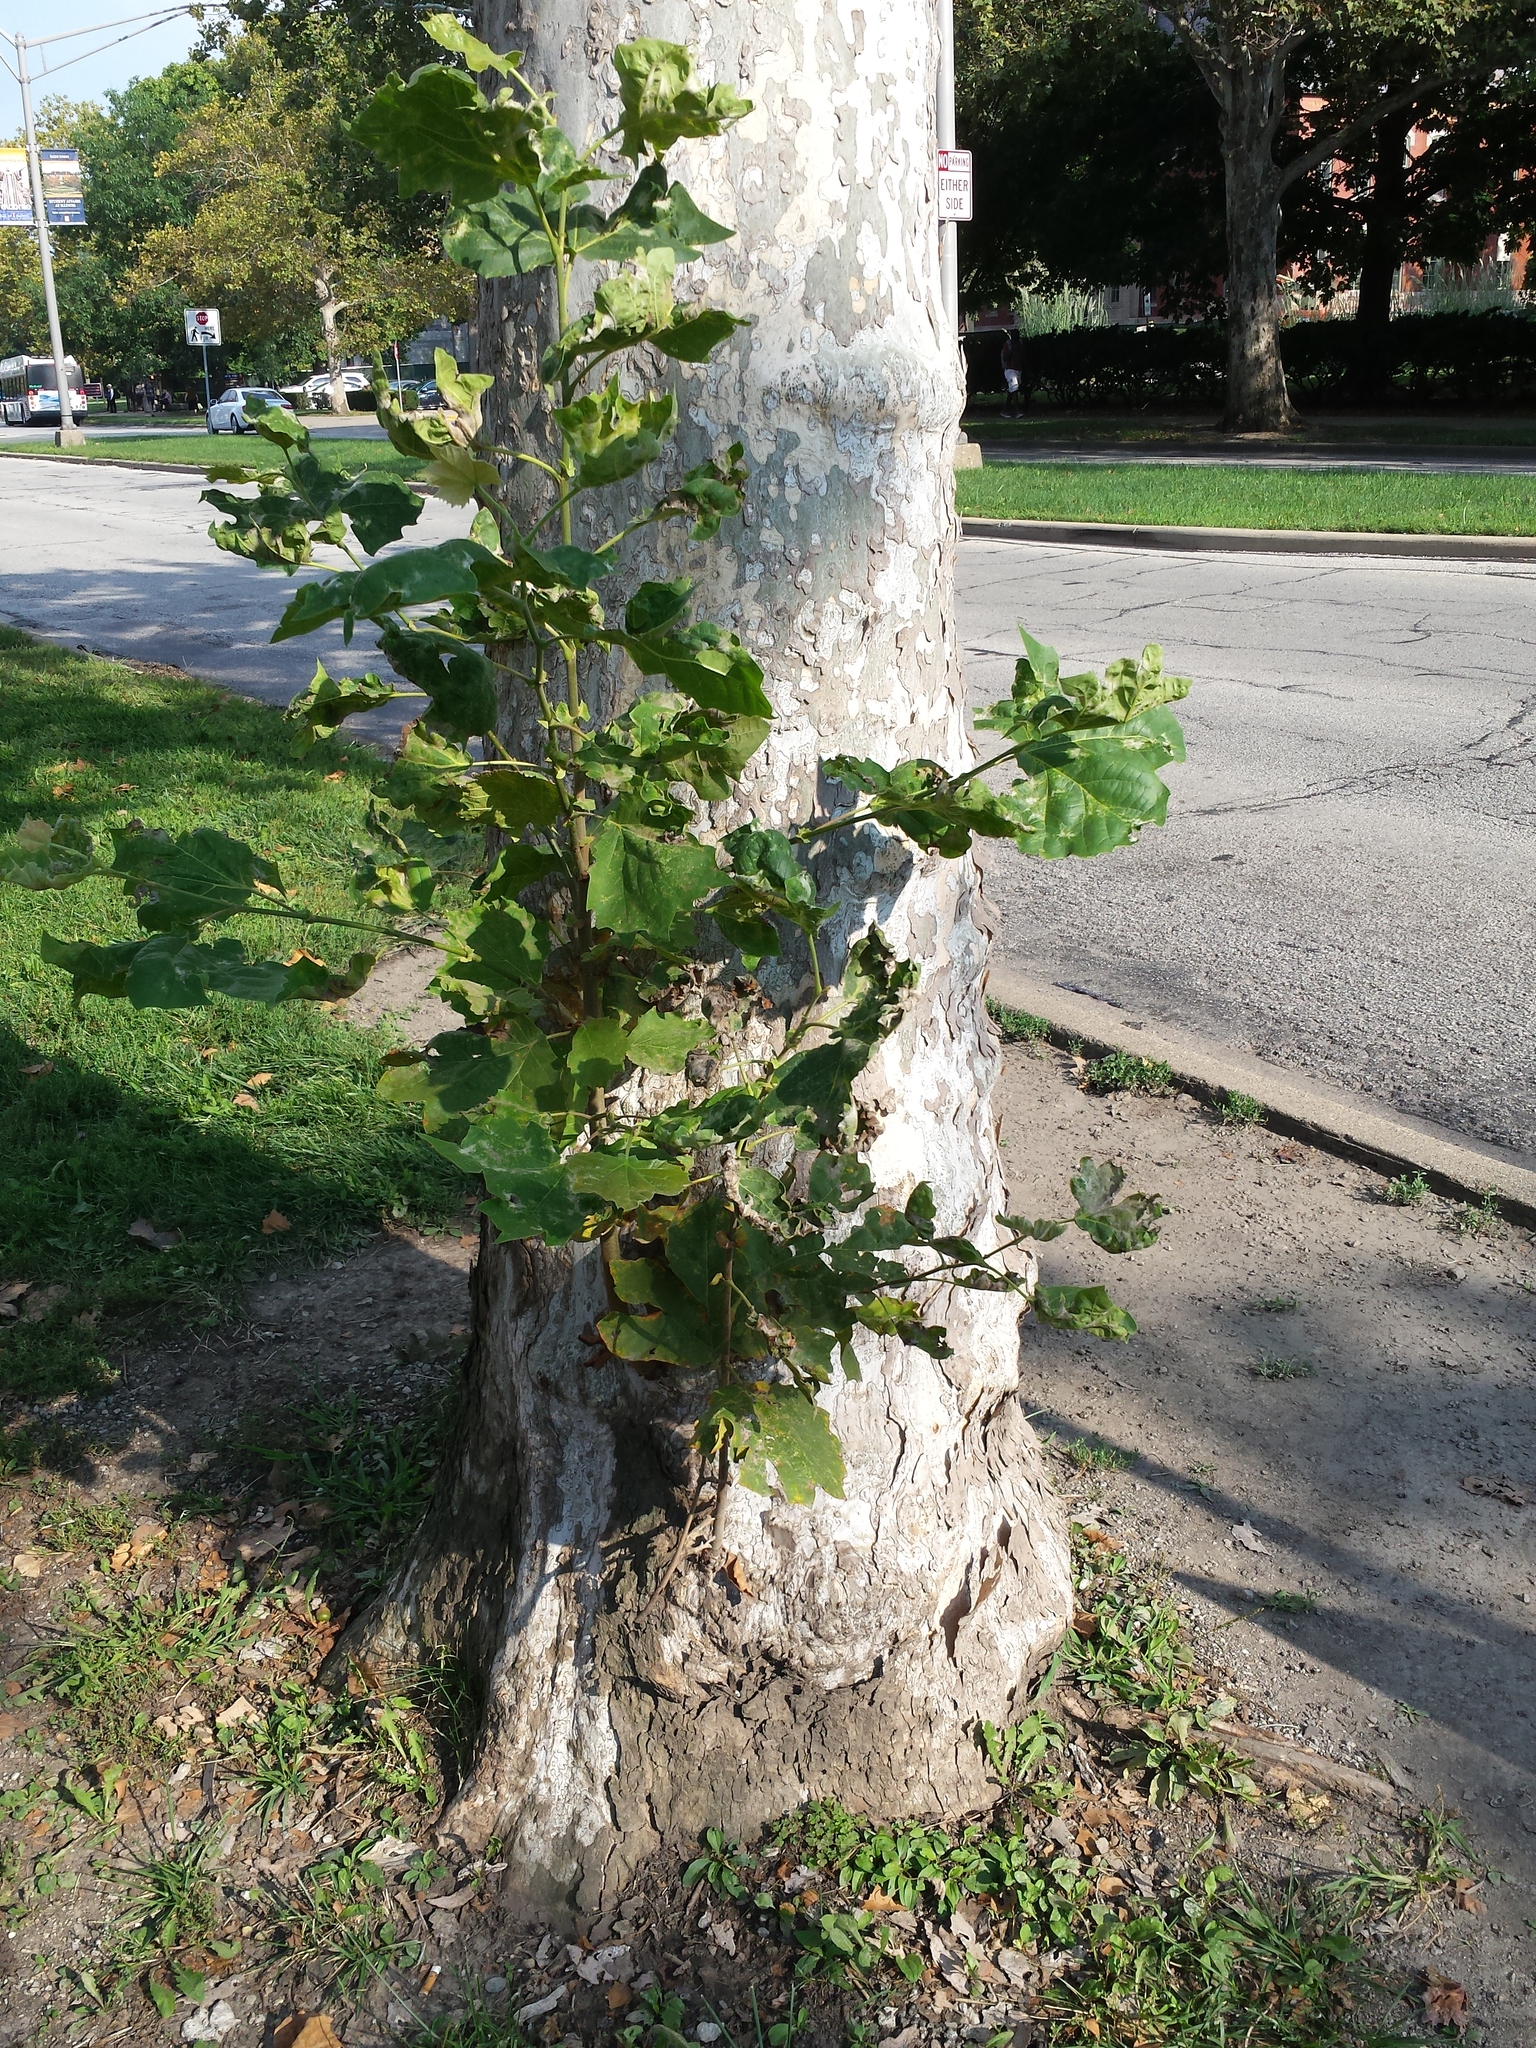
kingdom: Plantae
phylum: Tracheophyta
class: Magnoliopsida
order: Proteales
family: Platanaceae
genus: Platanus
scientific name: Platanus occidentalis
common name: American sycamore
